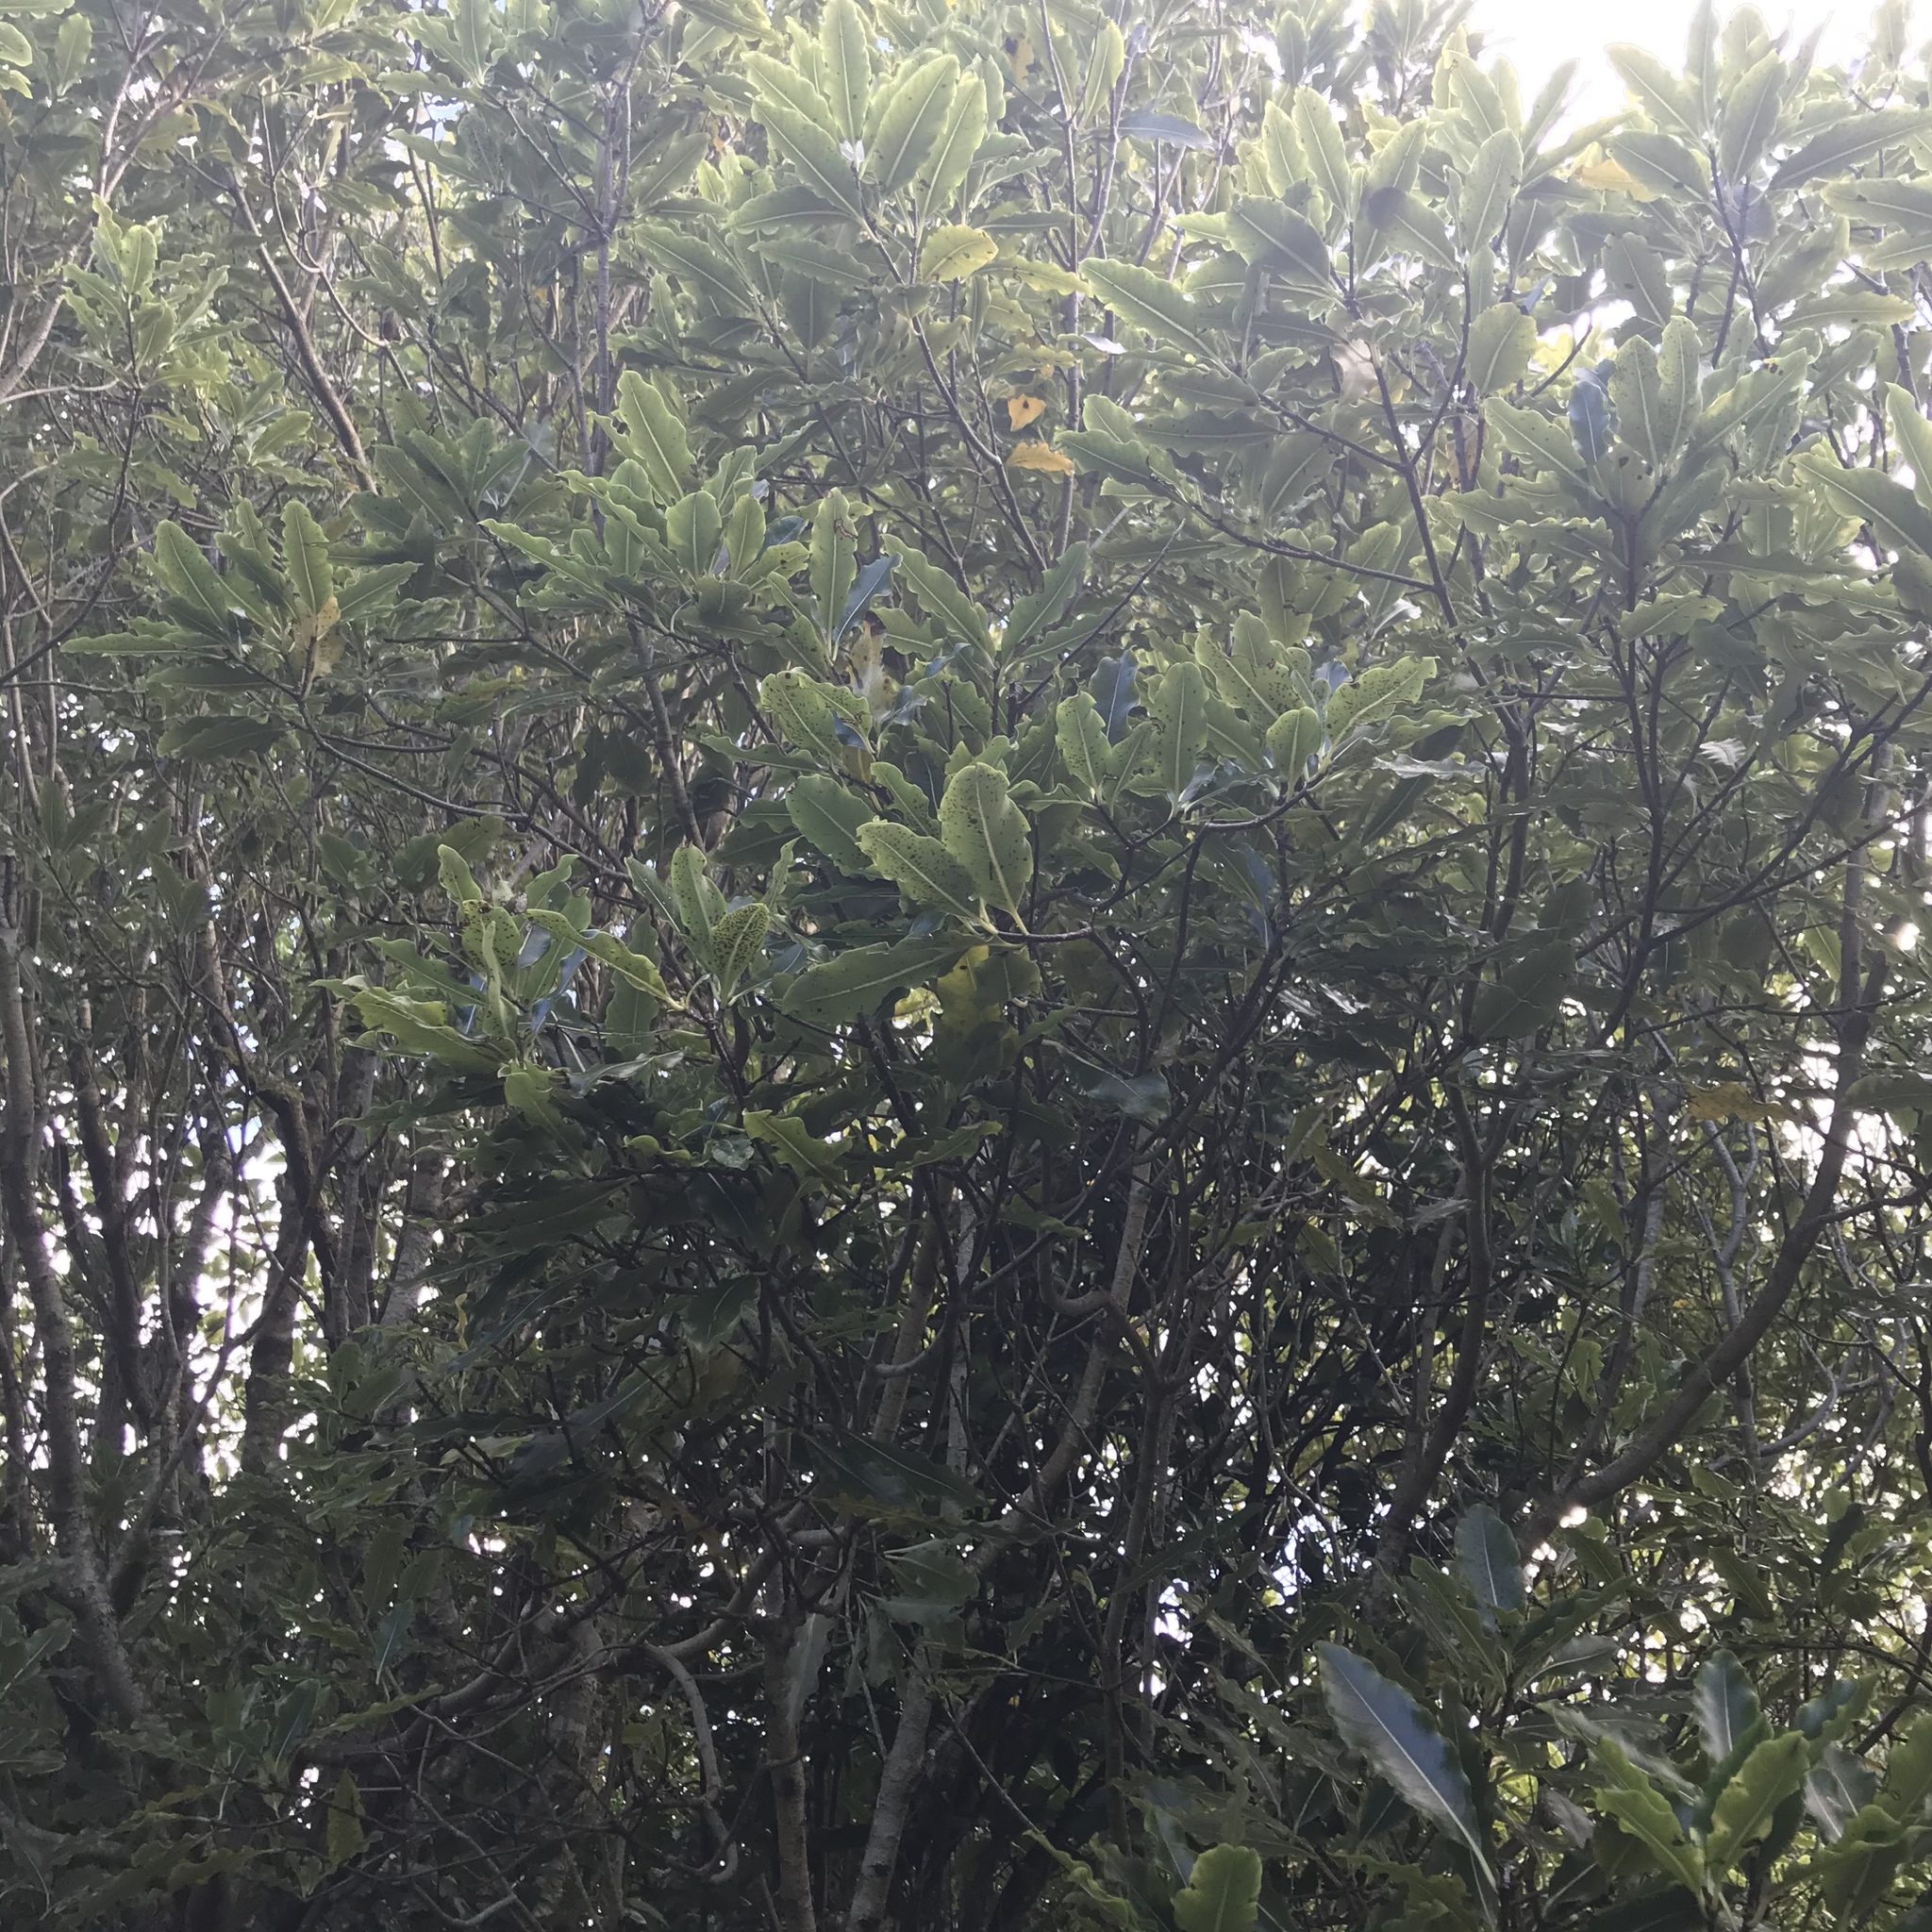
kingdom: Plantae
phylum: Tracheophyta
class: Magnoliopsida
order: Apiales
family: Pittosporaceae
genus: Pittosporum
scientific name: Pittosporum eugenioides
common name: Lemonwood
